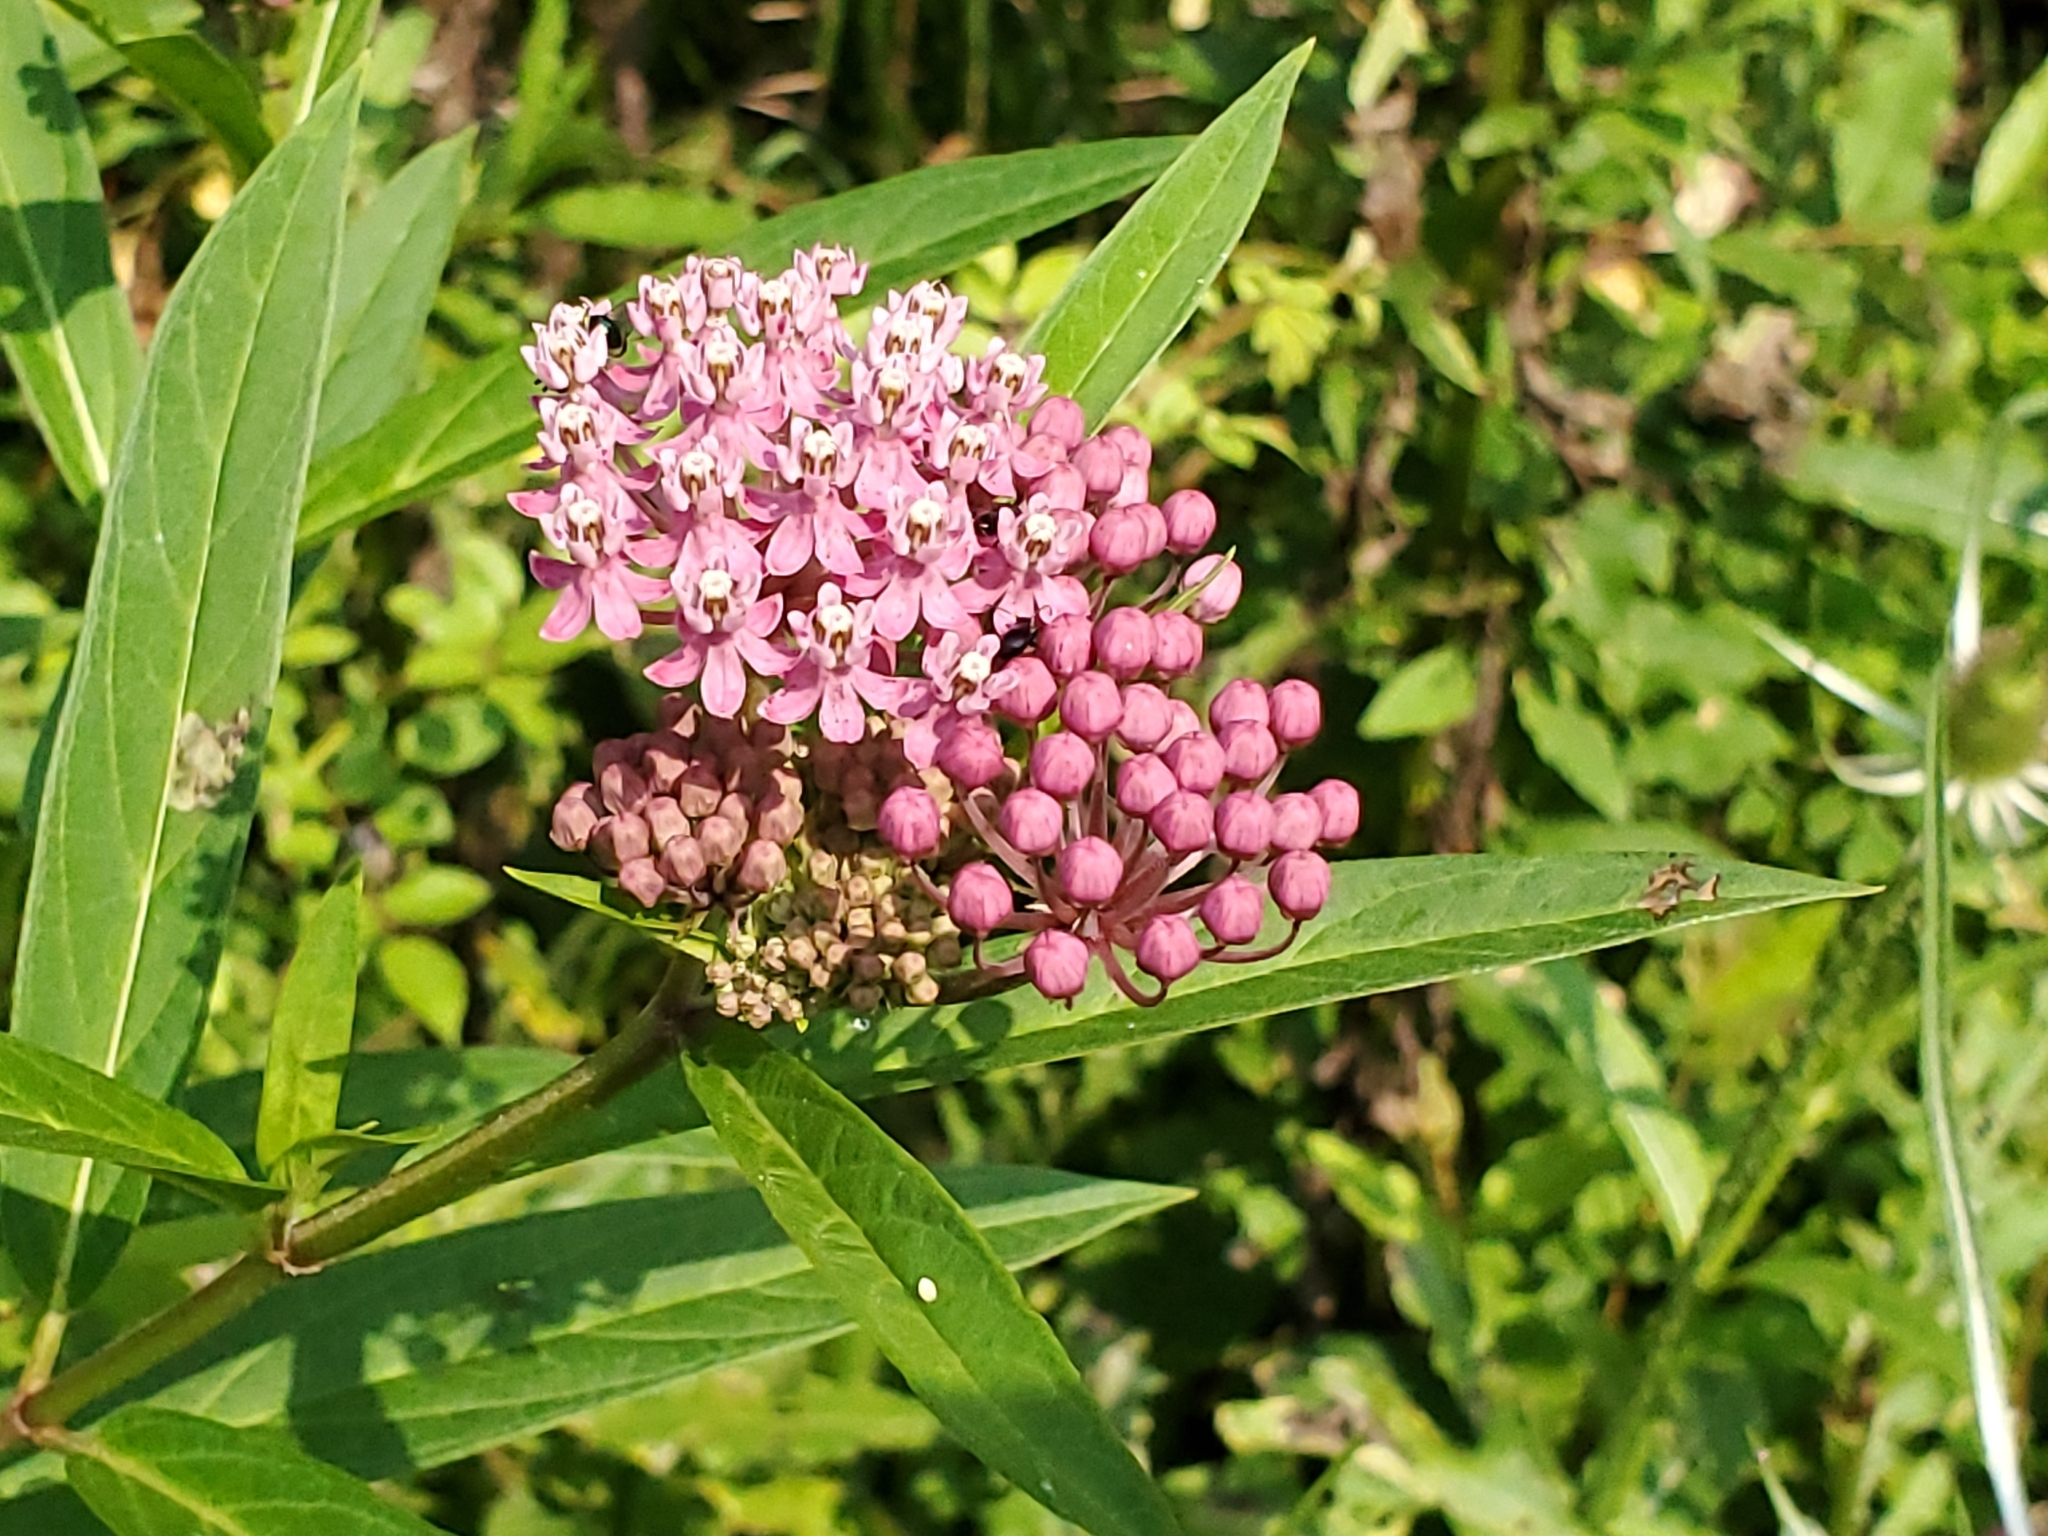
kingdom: Plantae
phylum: Tracheophyta
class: Magnoliopsida
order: Gentianales
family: Apocynaceae
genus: Asclepias
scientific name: Asclepias incarnata
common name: Swamp milkweed
